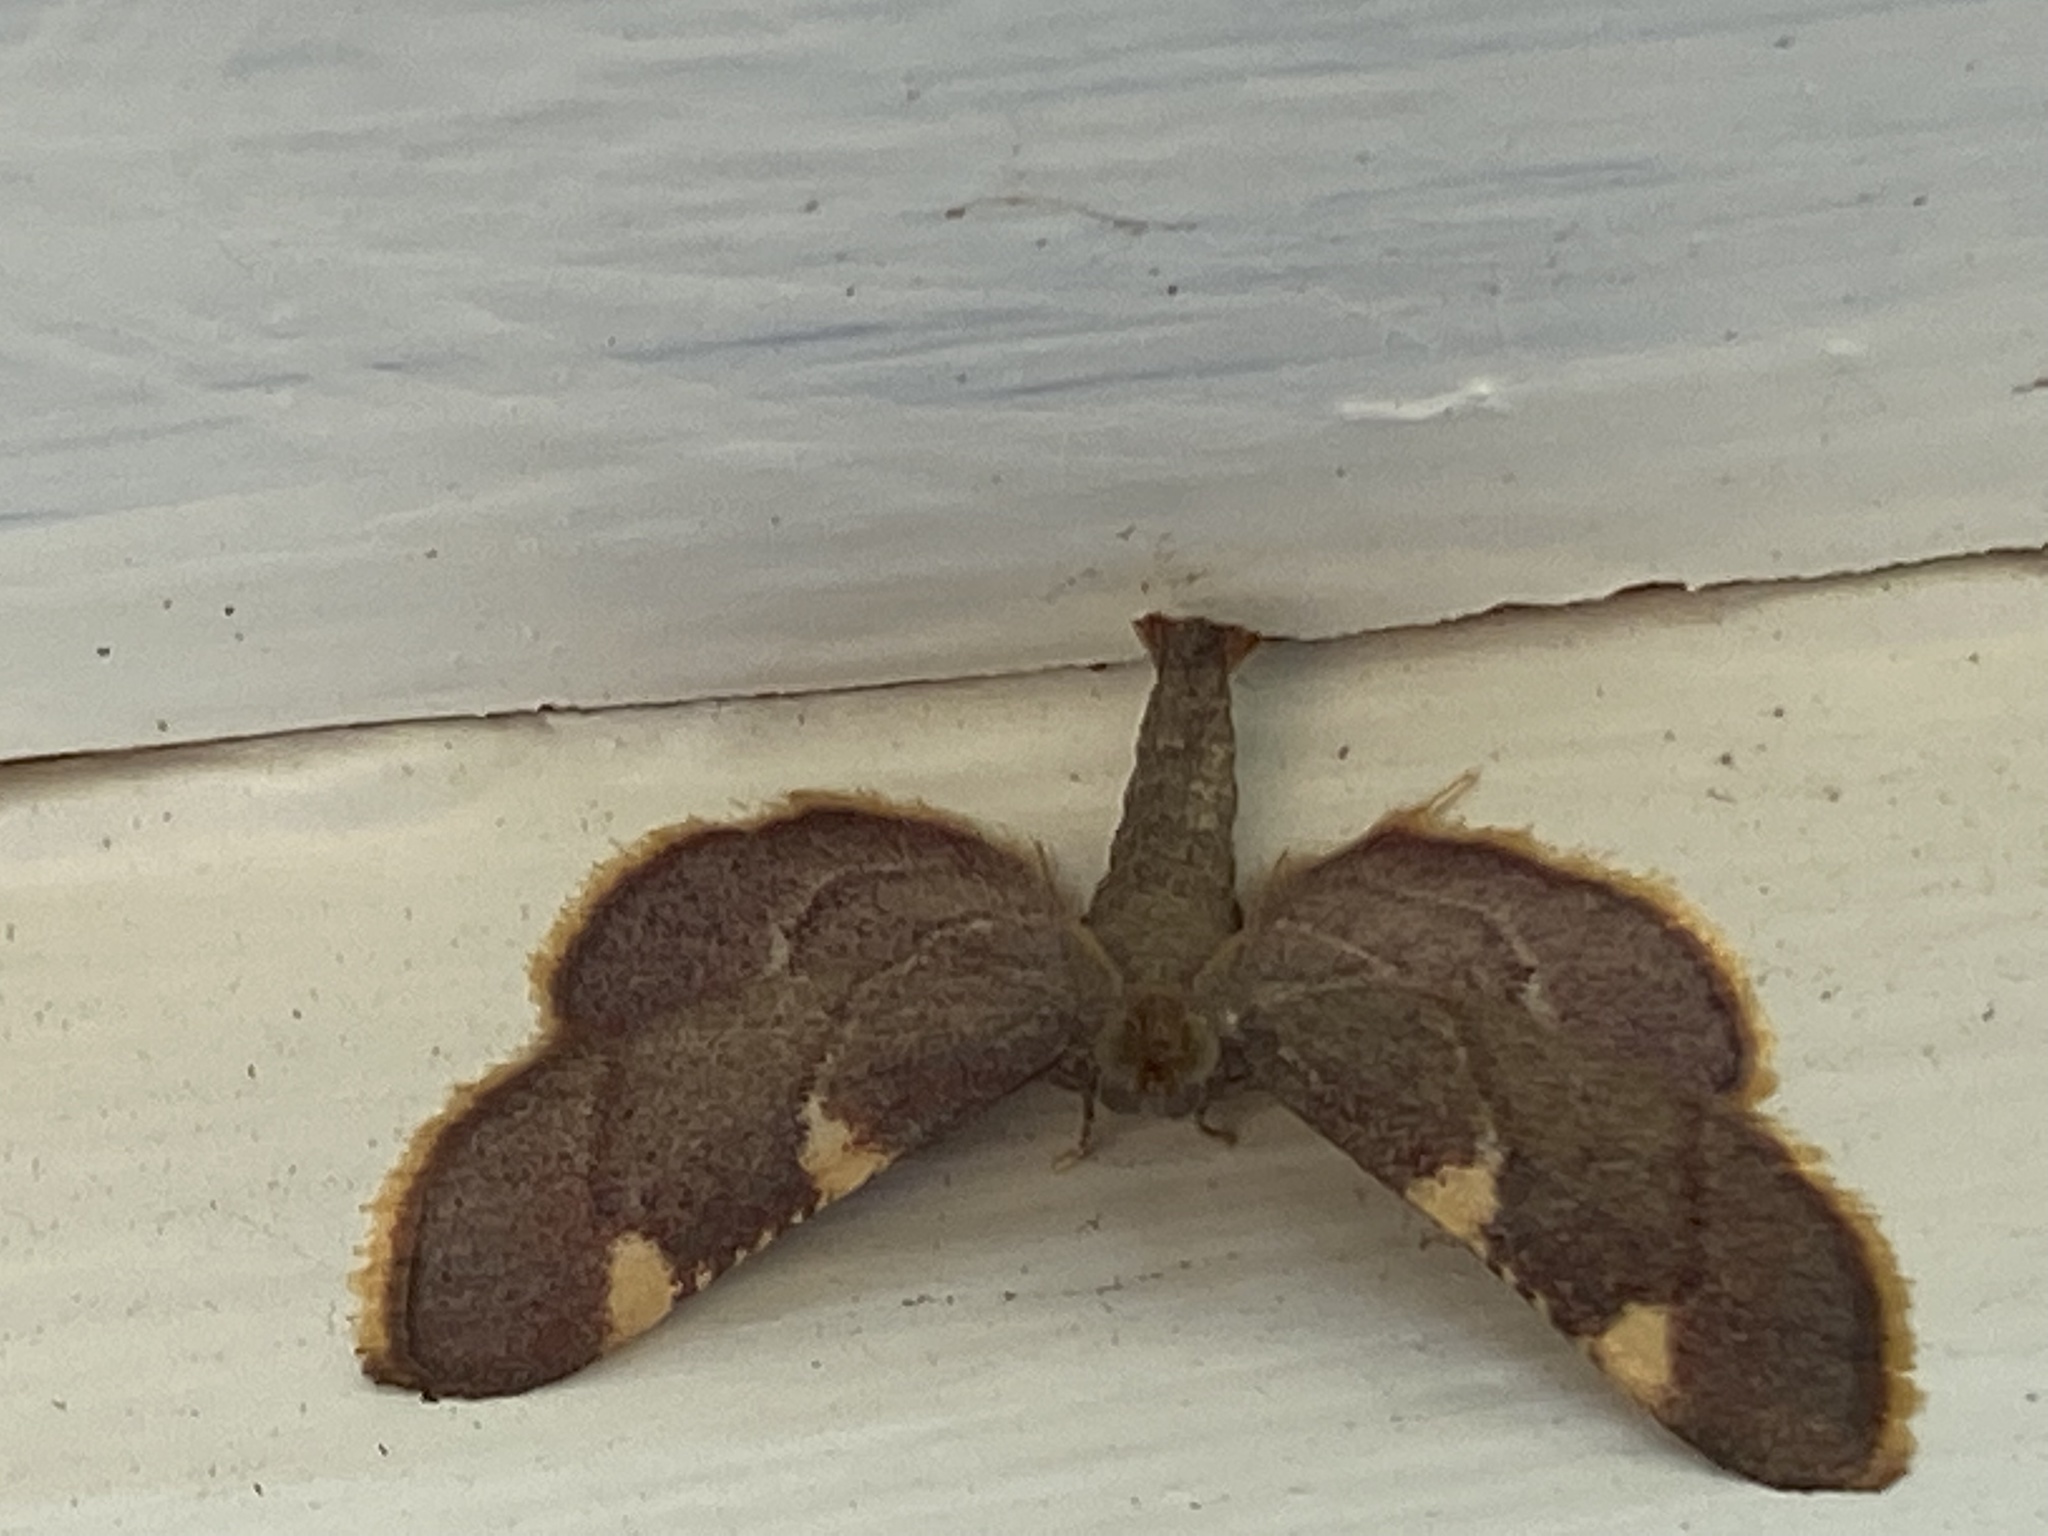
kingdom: Animalia
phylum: Arthropoda
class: Insecta
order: Lepidoptera
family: Pyralidae
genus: Hypsopygia
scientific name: Hypsopygia olinalis
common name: Yellow-fringed dolichomia moth
